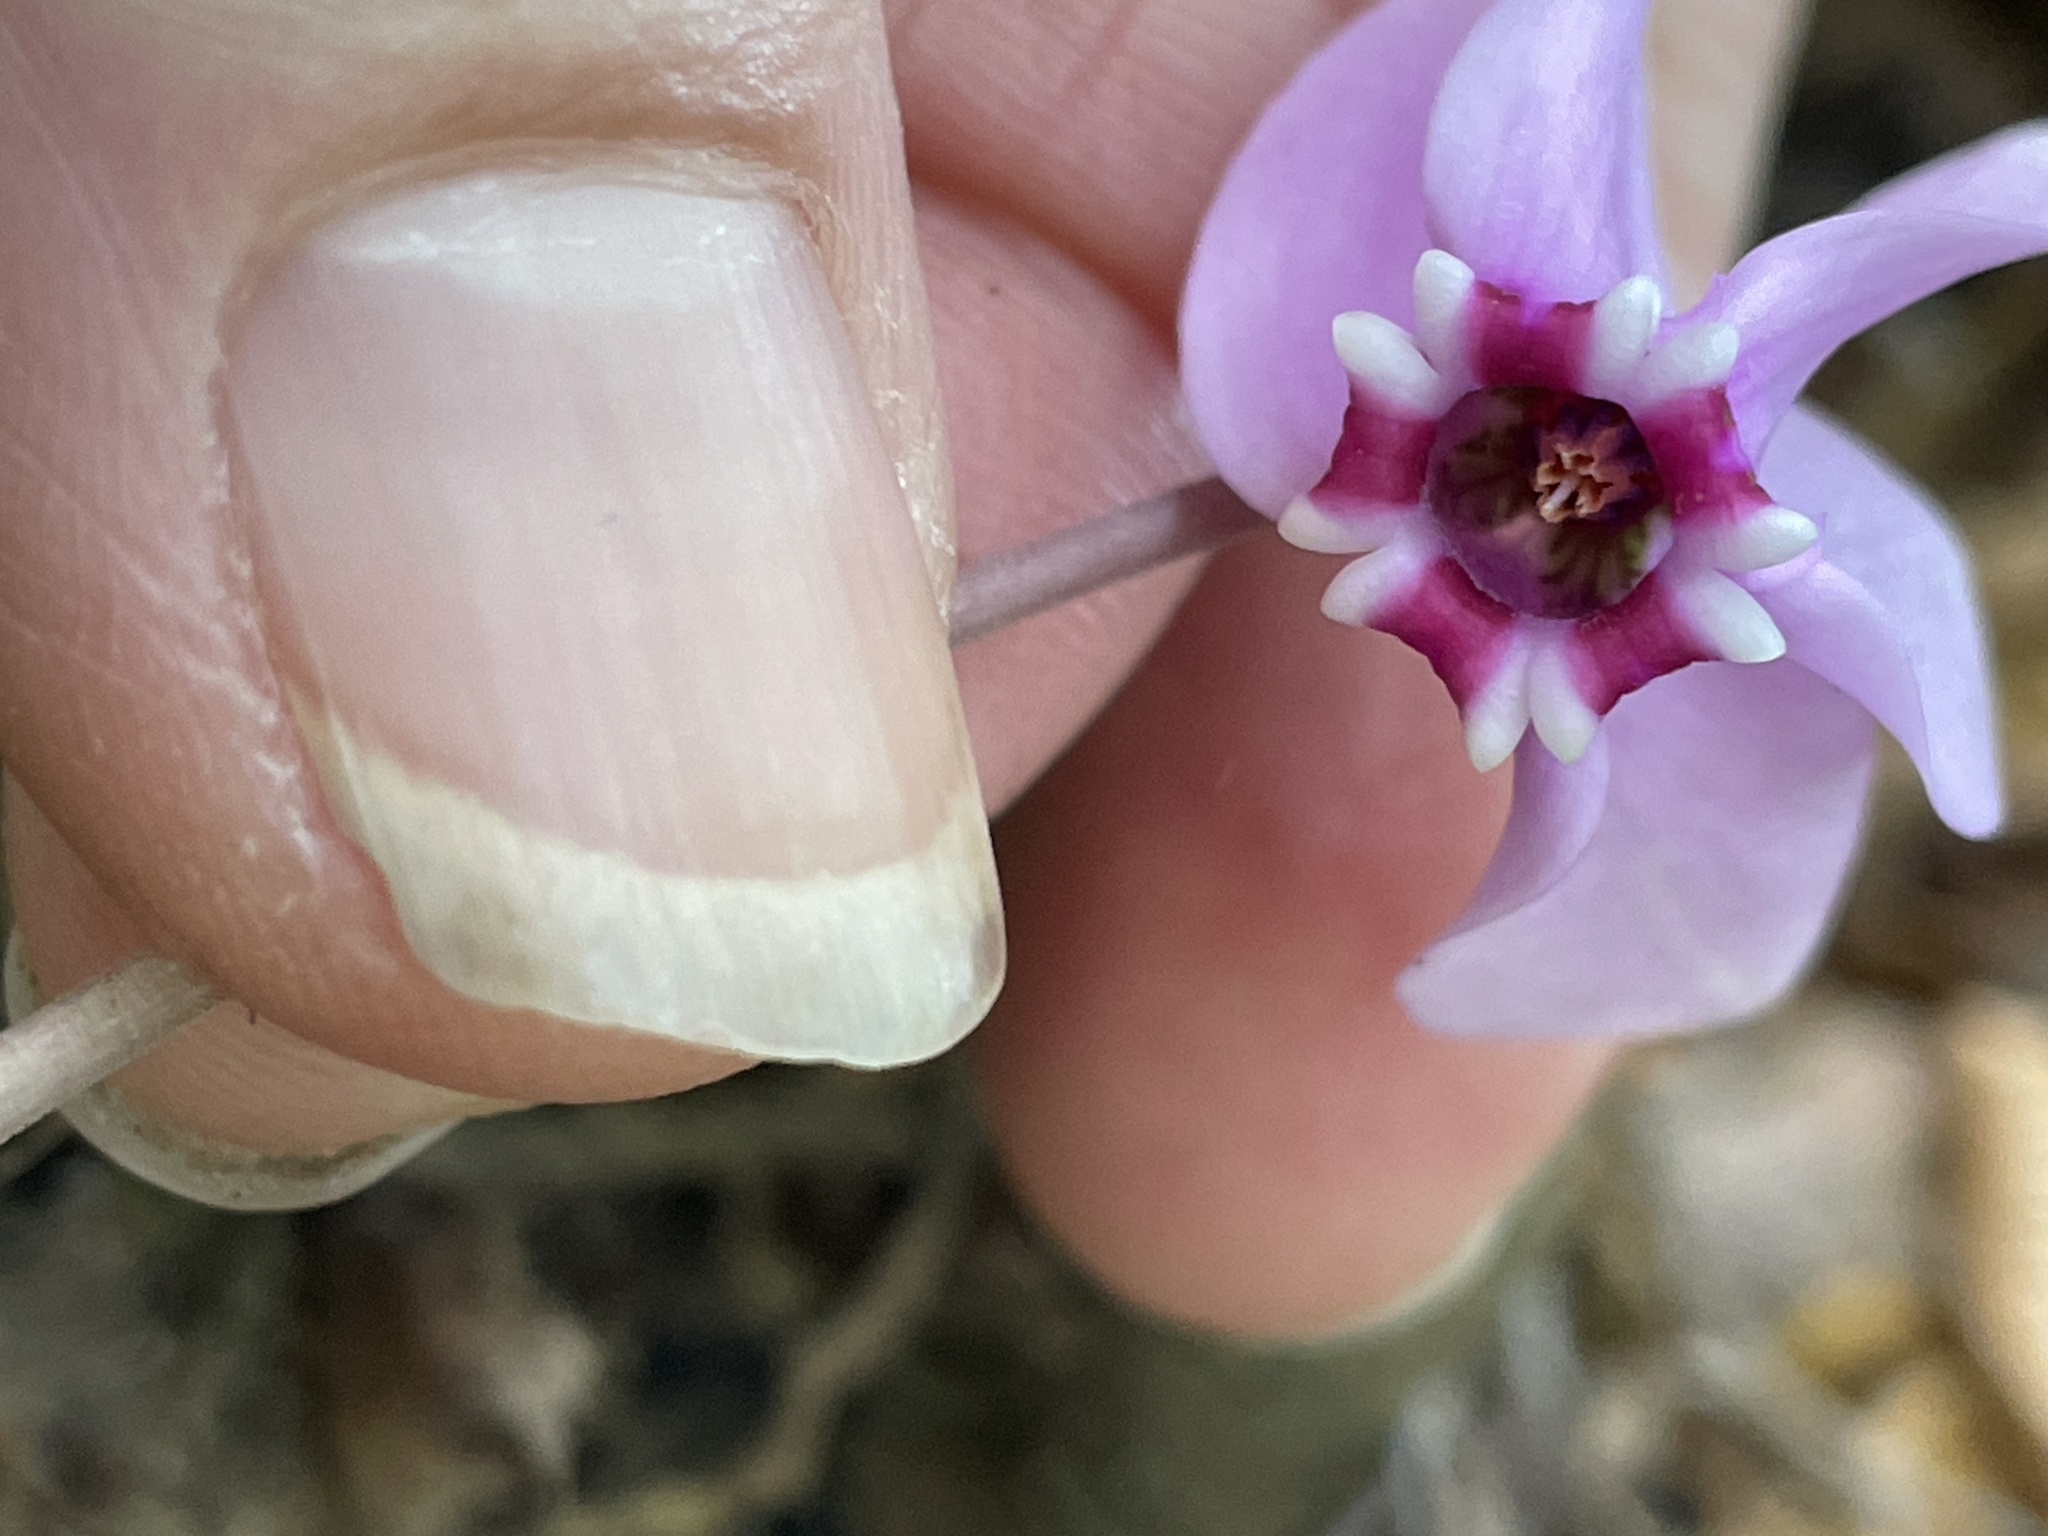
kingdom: Plantae
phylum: Tracheophyta
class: Magnoliopsida
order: Ericales
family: Primulaceae
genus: Cyclamen
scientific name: Cyclamen hederifolium
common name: Sowbread
